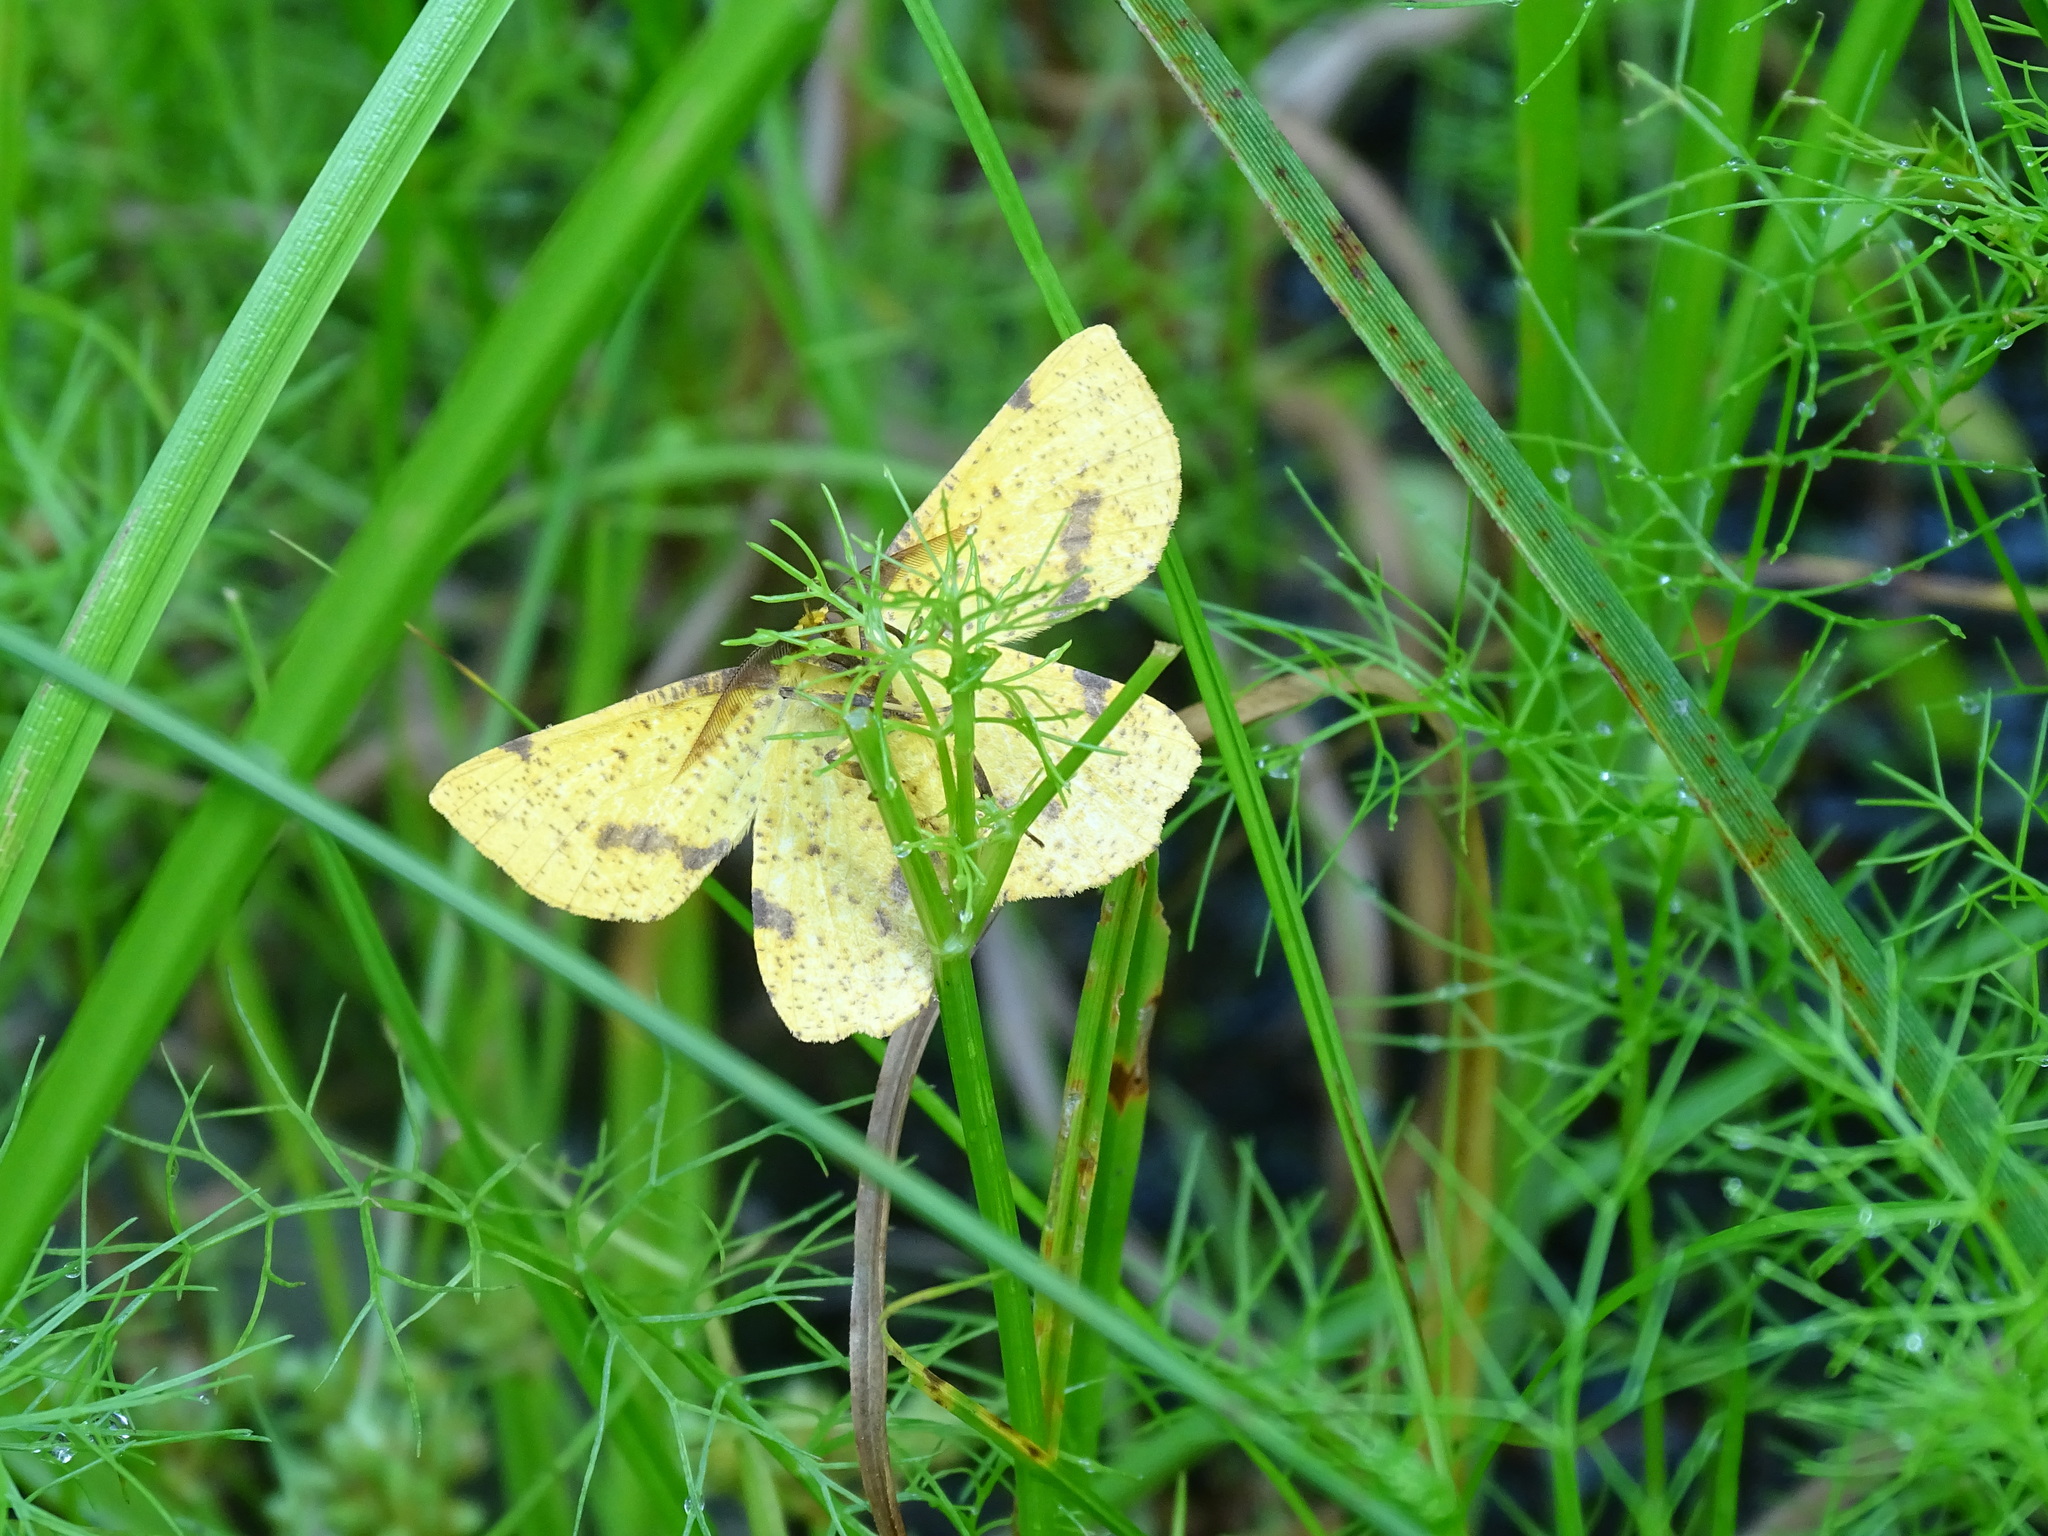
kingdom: Animalia
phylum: Arthropoda
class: Insecta
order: Lepidoptera
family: Geometridae
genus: Xanthotype
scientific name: Xanthotype
